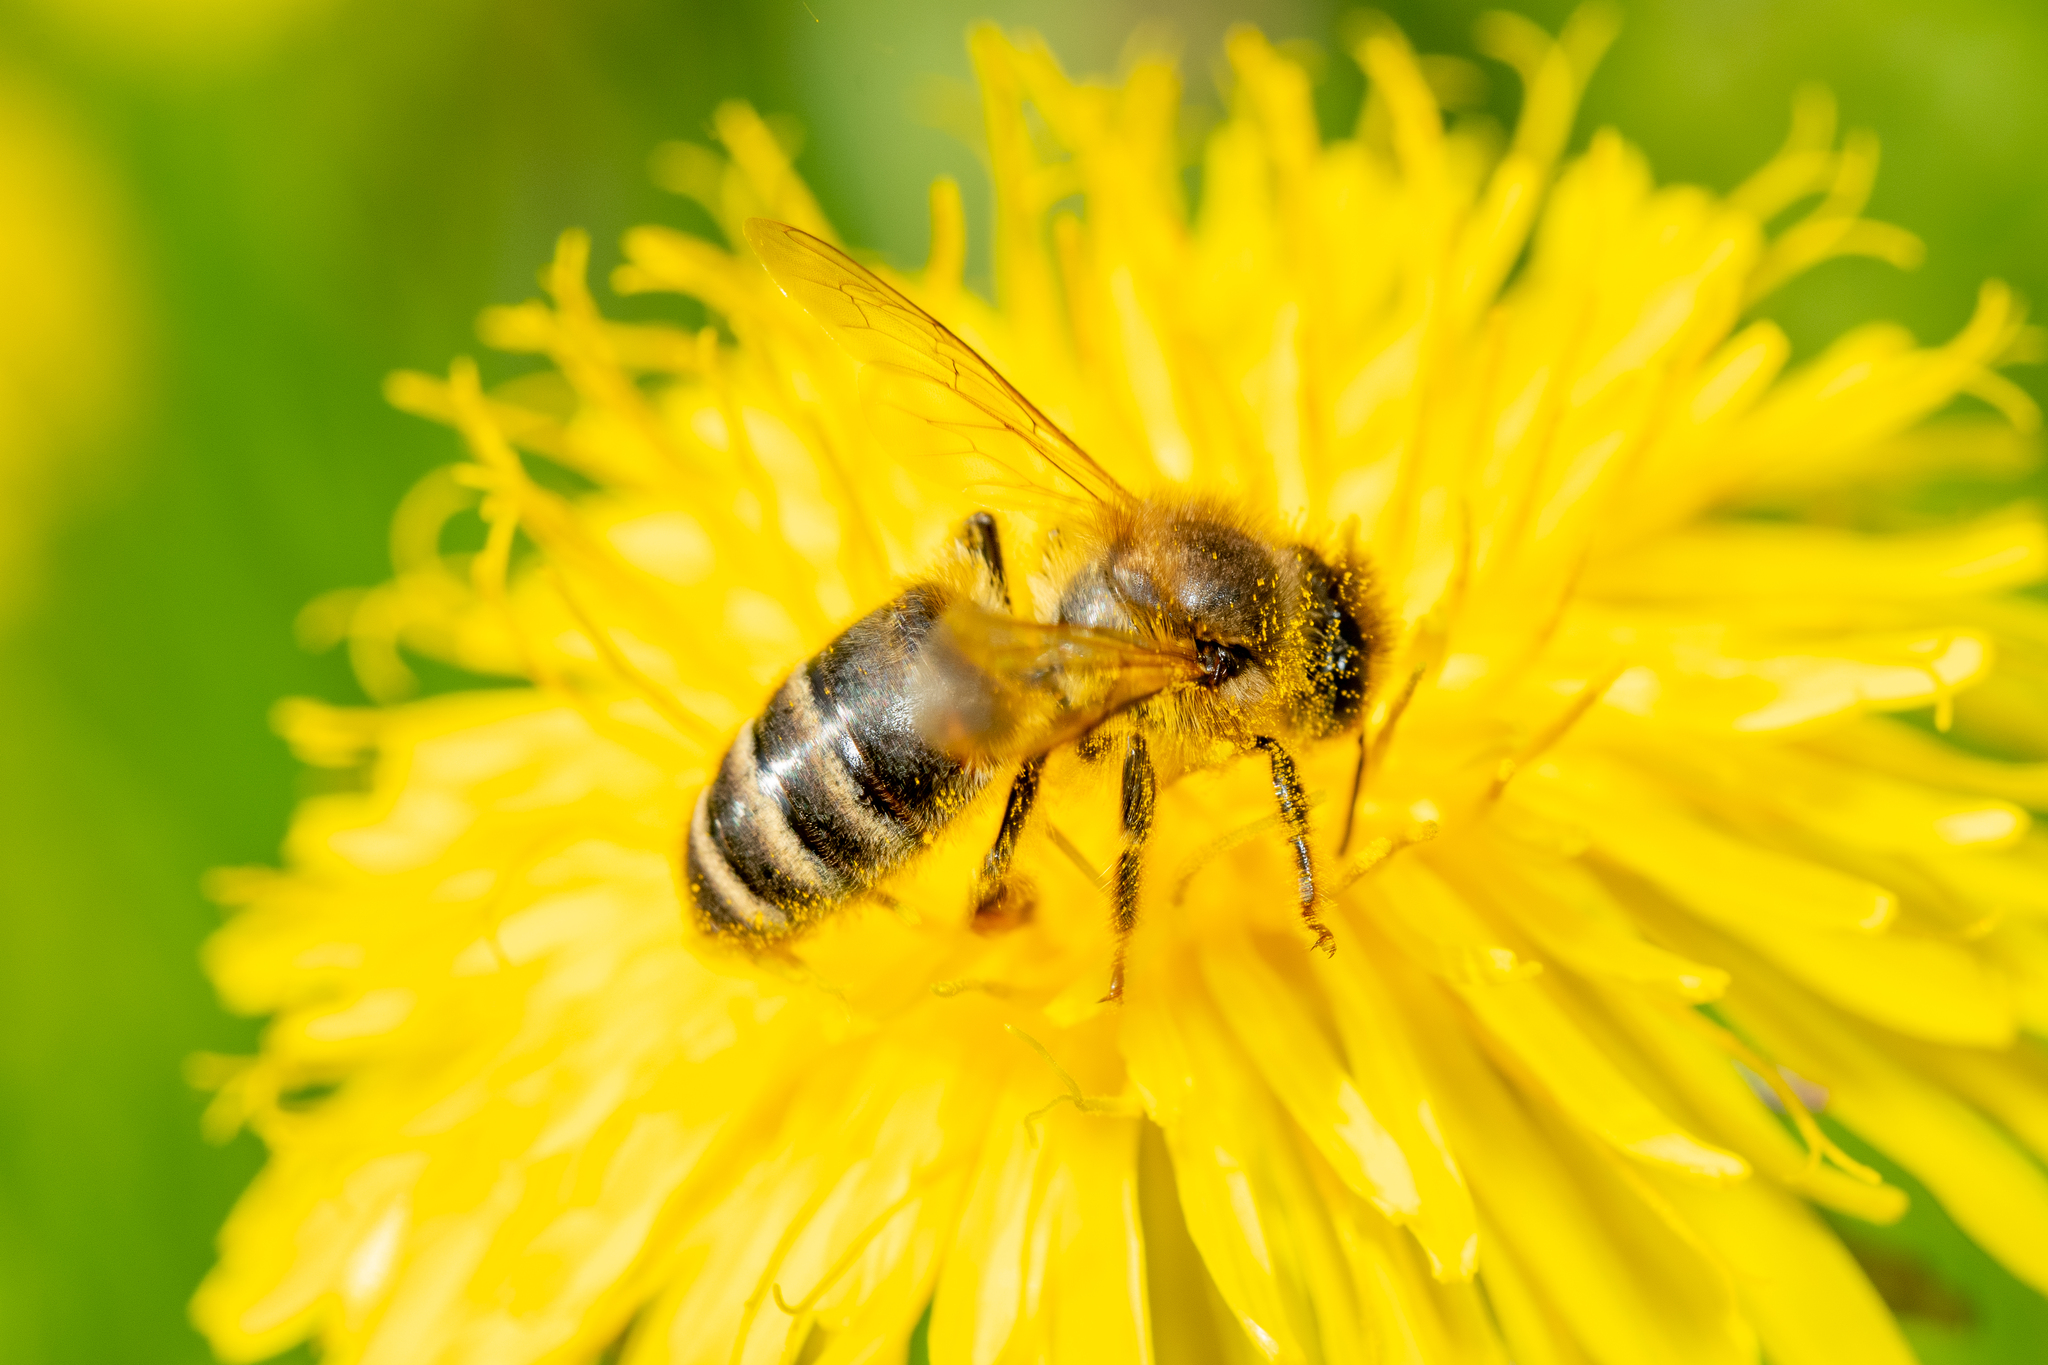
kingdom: Animalia
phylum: Arthropoda
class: Insecta
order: Hymenoptera
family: Apidae
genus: Apis
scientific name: Apis mellifera
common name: Honey bee
